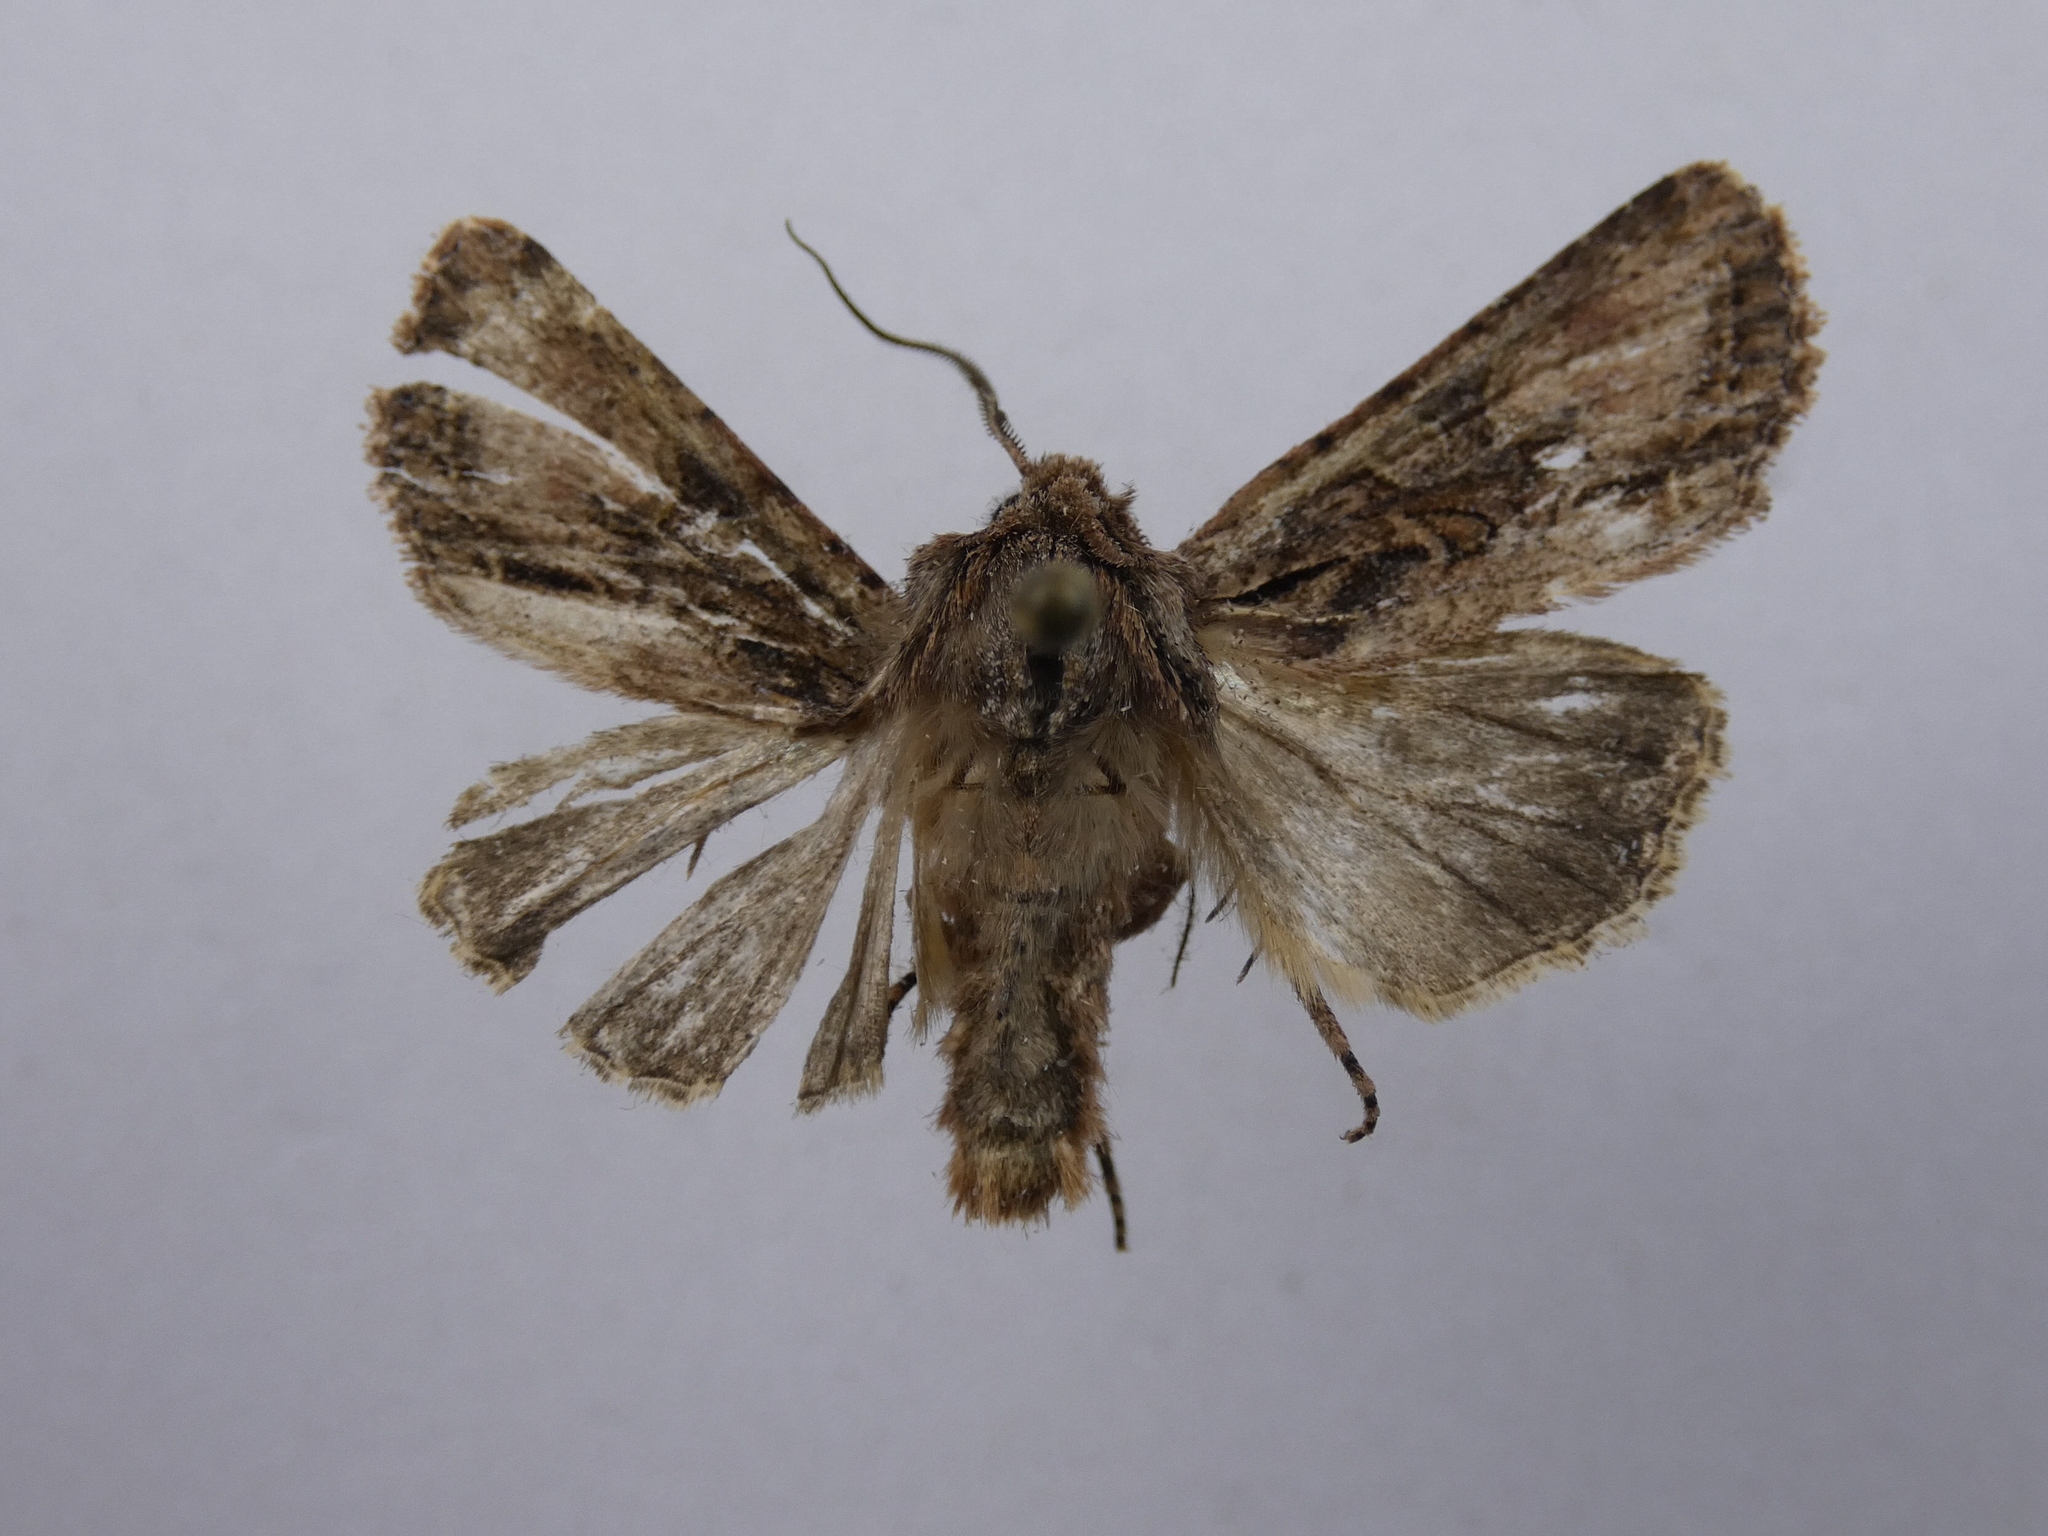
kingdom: Animalia
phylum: Arthropoda
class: Insecta
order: Lepidoptera
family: Noctuidae
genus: Ichneutica
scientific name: Ichneutica mutans
